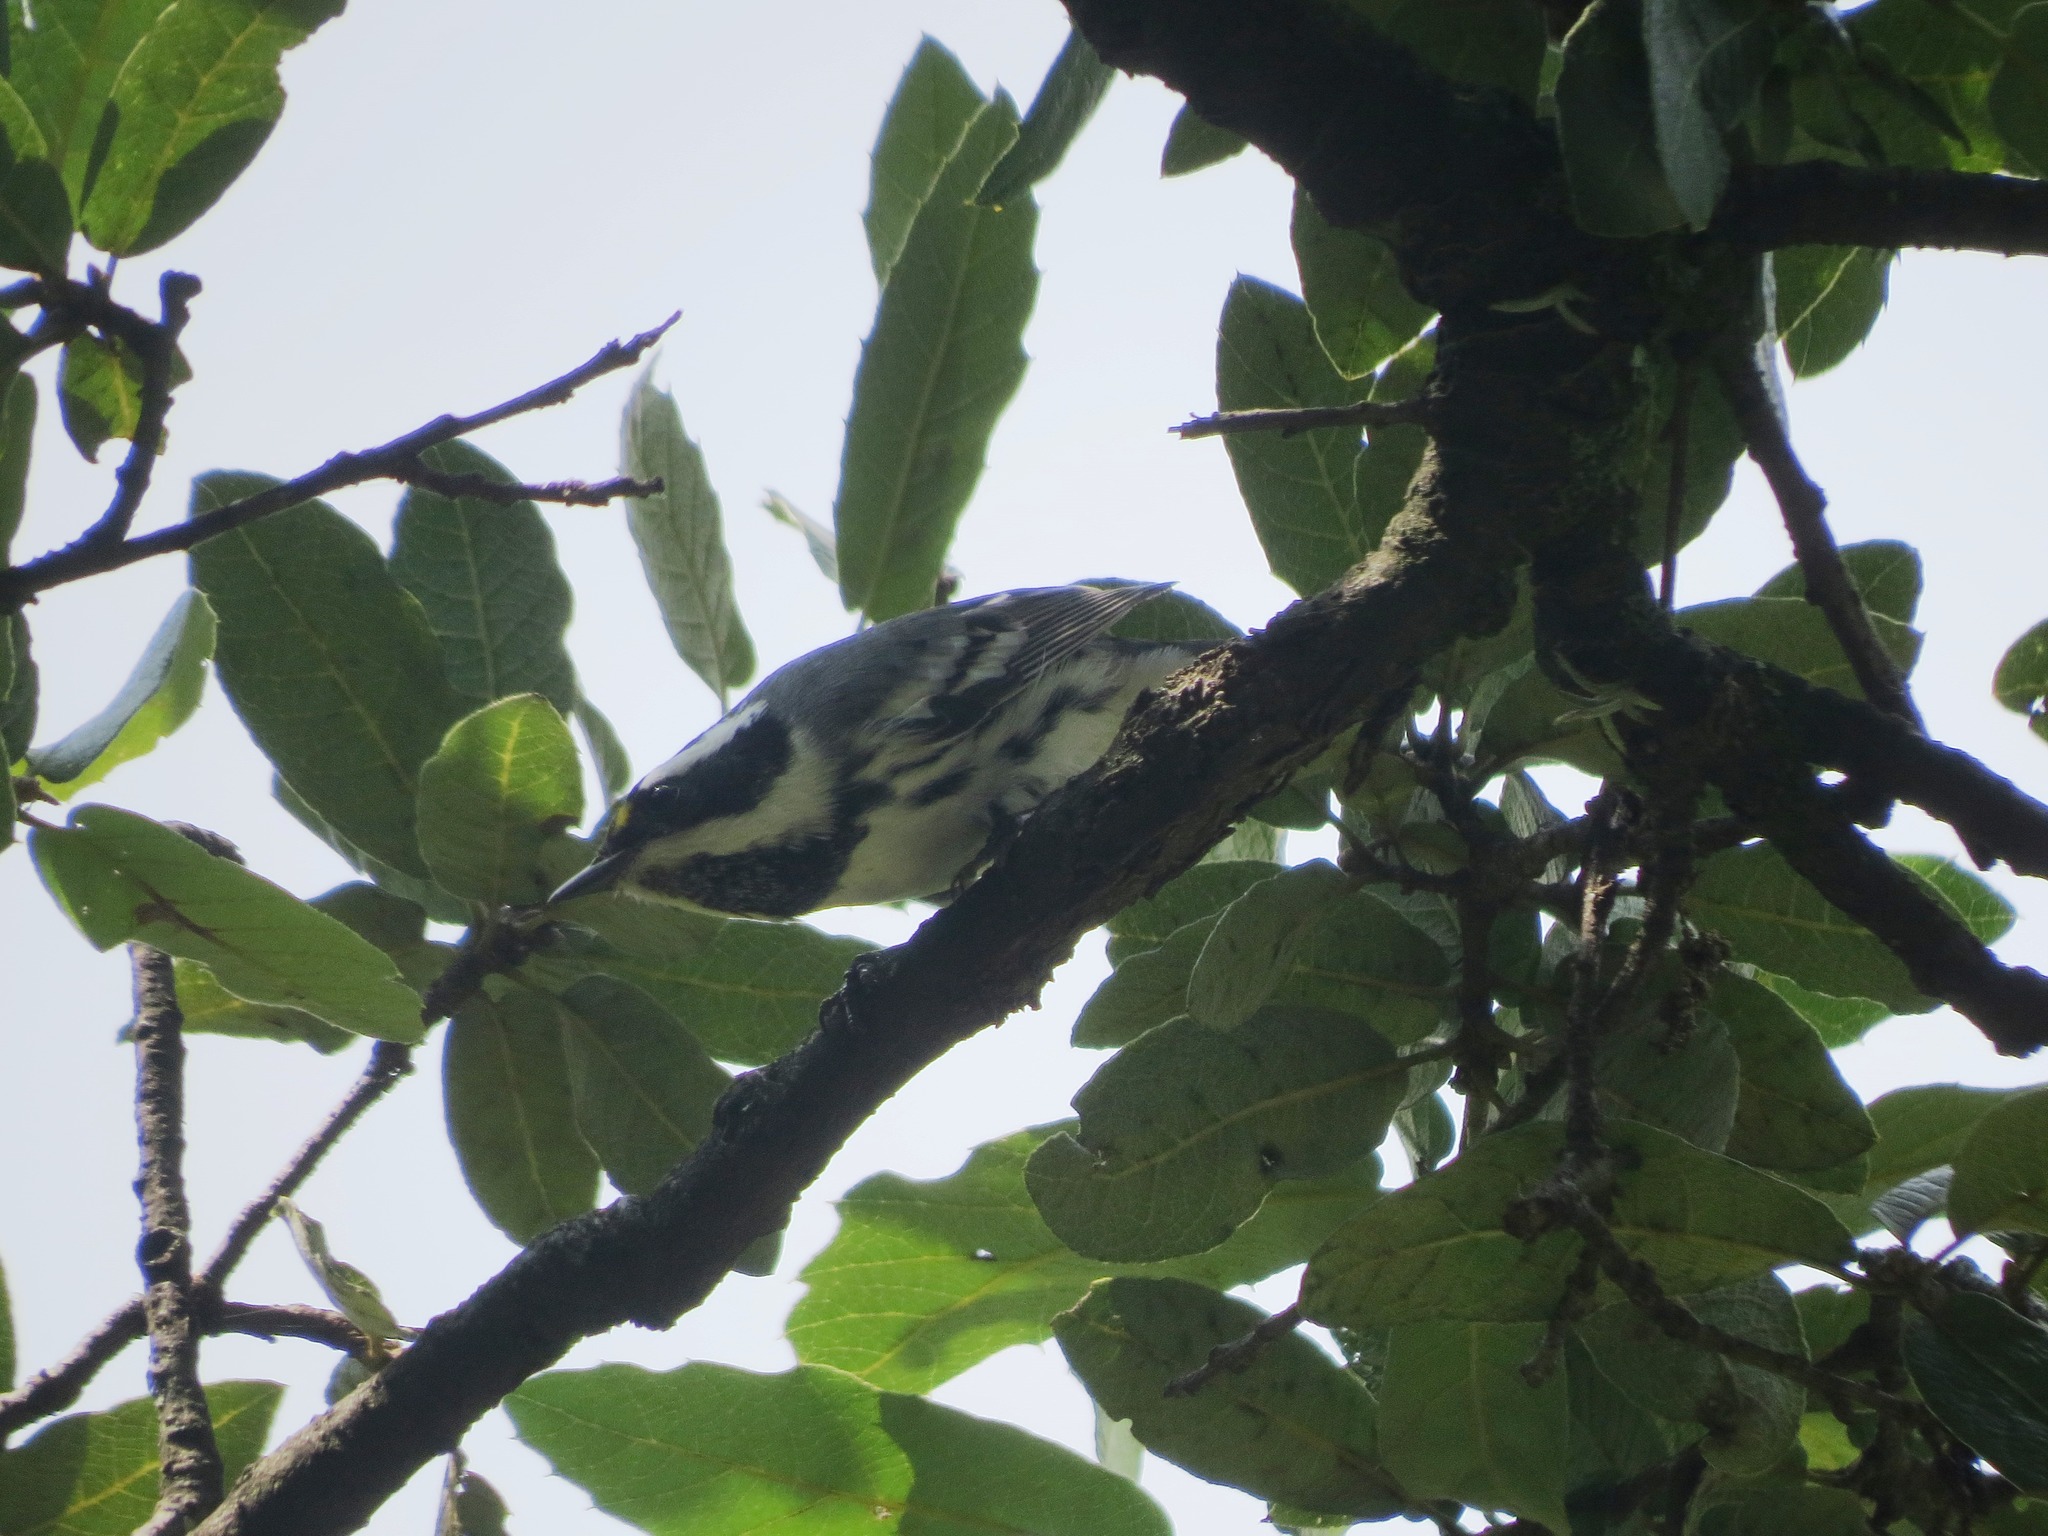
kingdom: Animalia
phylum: Chordata
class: Aves
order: Passeriformes
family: Parulidae
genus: Setophaga
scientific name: Setophaga nigrescens
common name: Black-throated gray warbler
